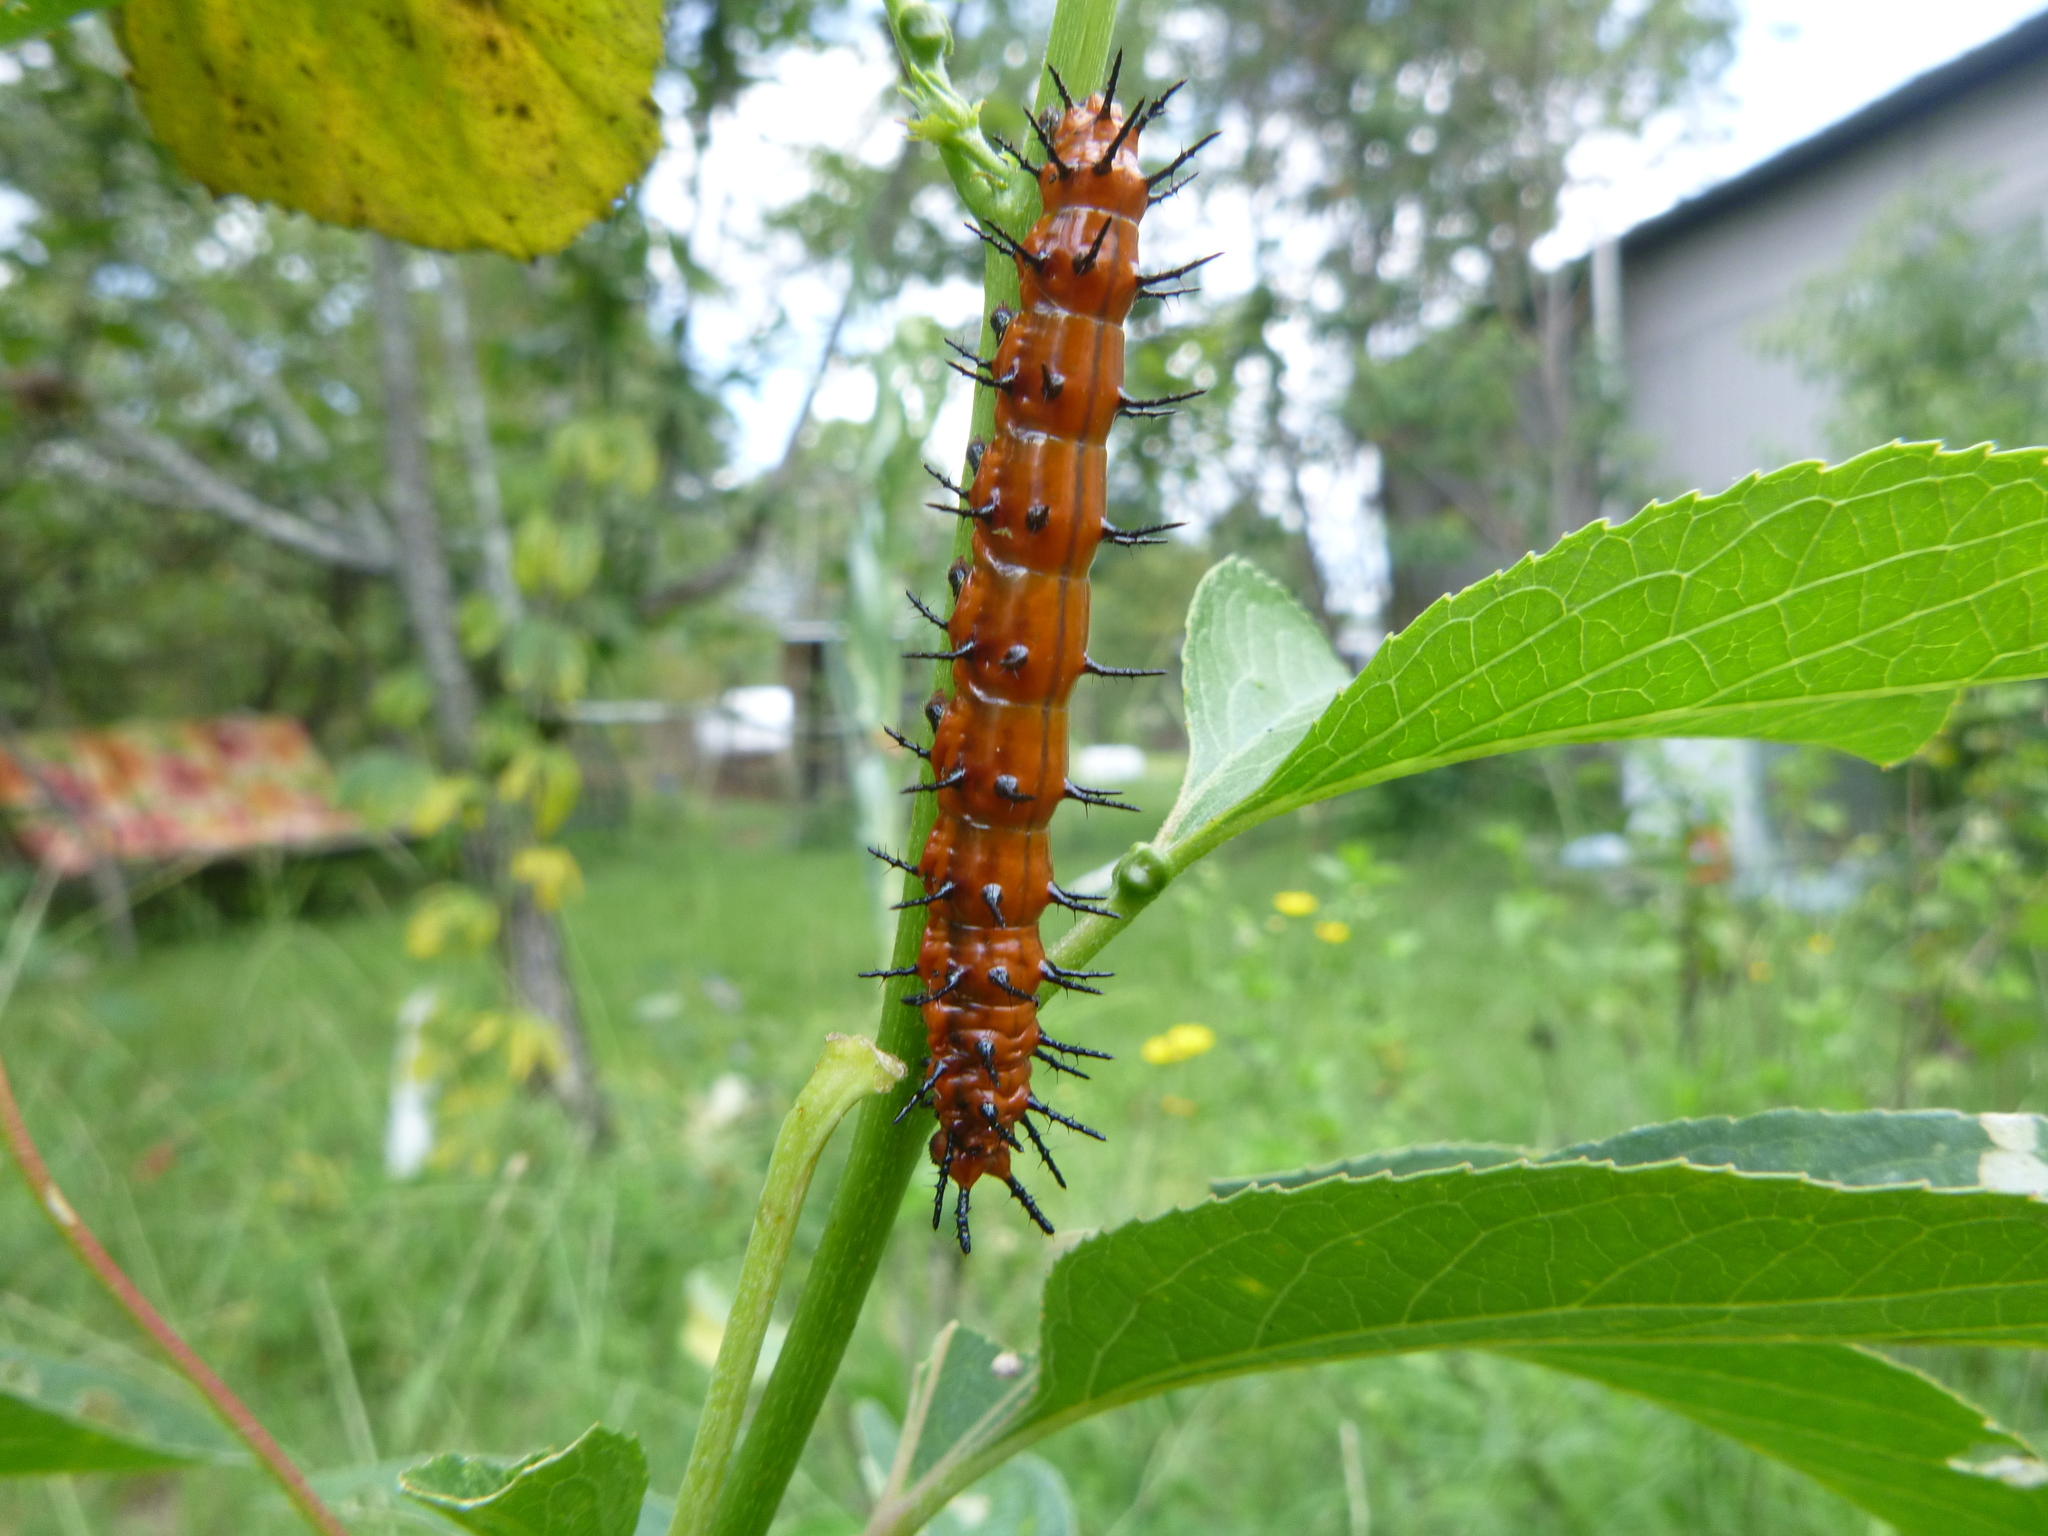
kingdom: Animalia
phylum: Arthropoda
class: Insecta
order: Lepidoptera
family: Nymphalidae
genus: Dione
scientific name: Dione vanillae
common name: Gulf fritillary
